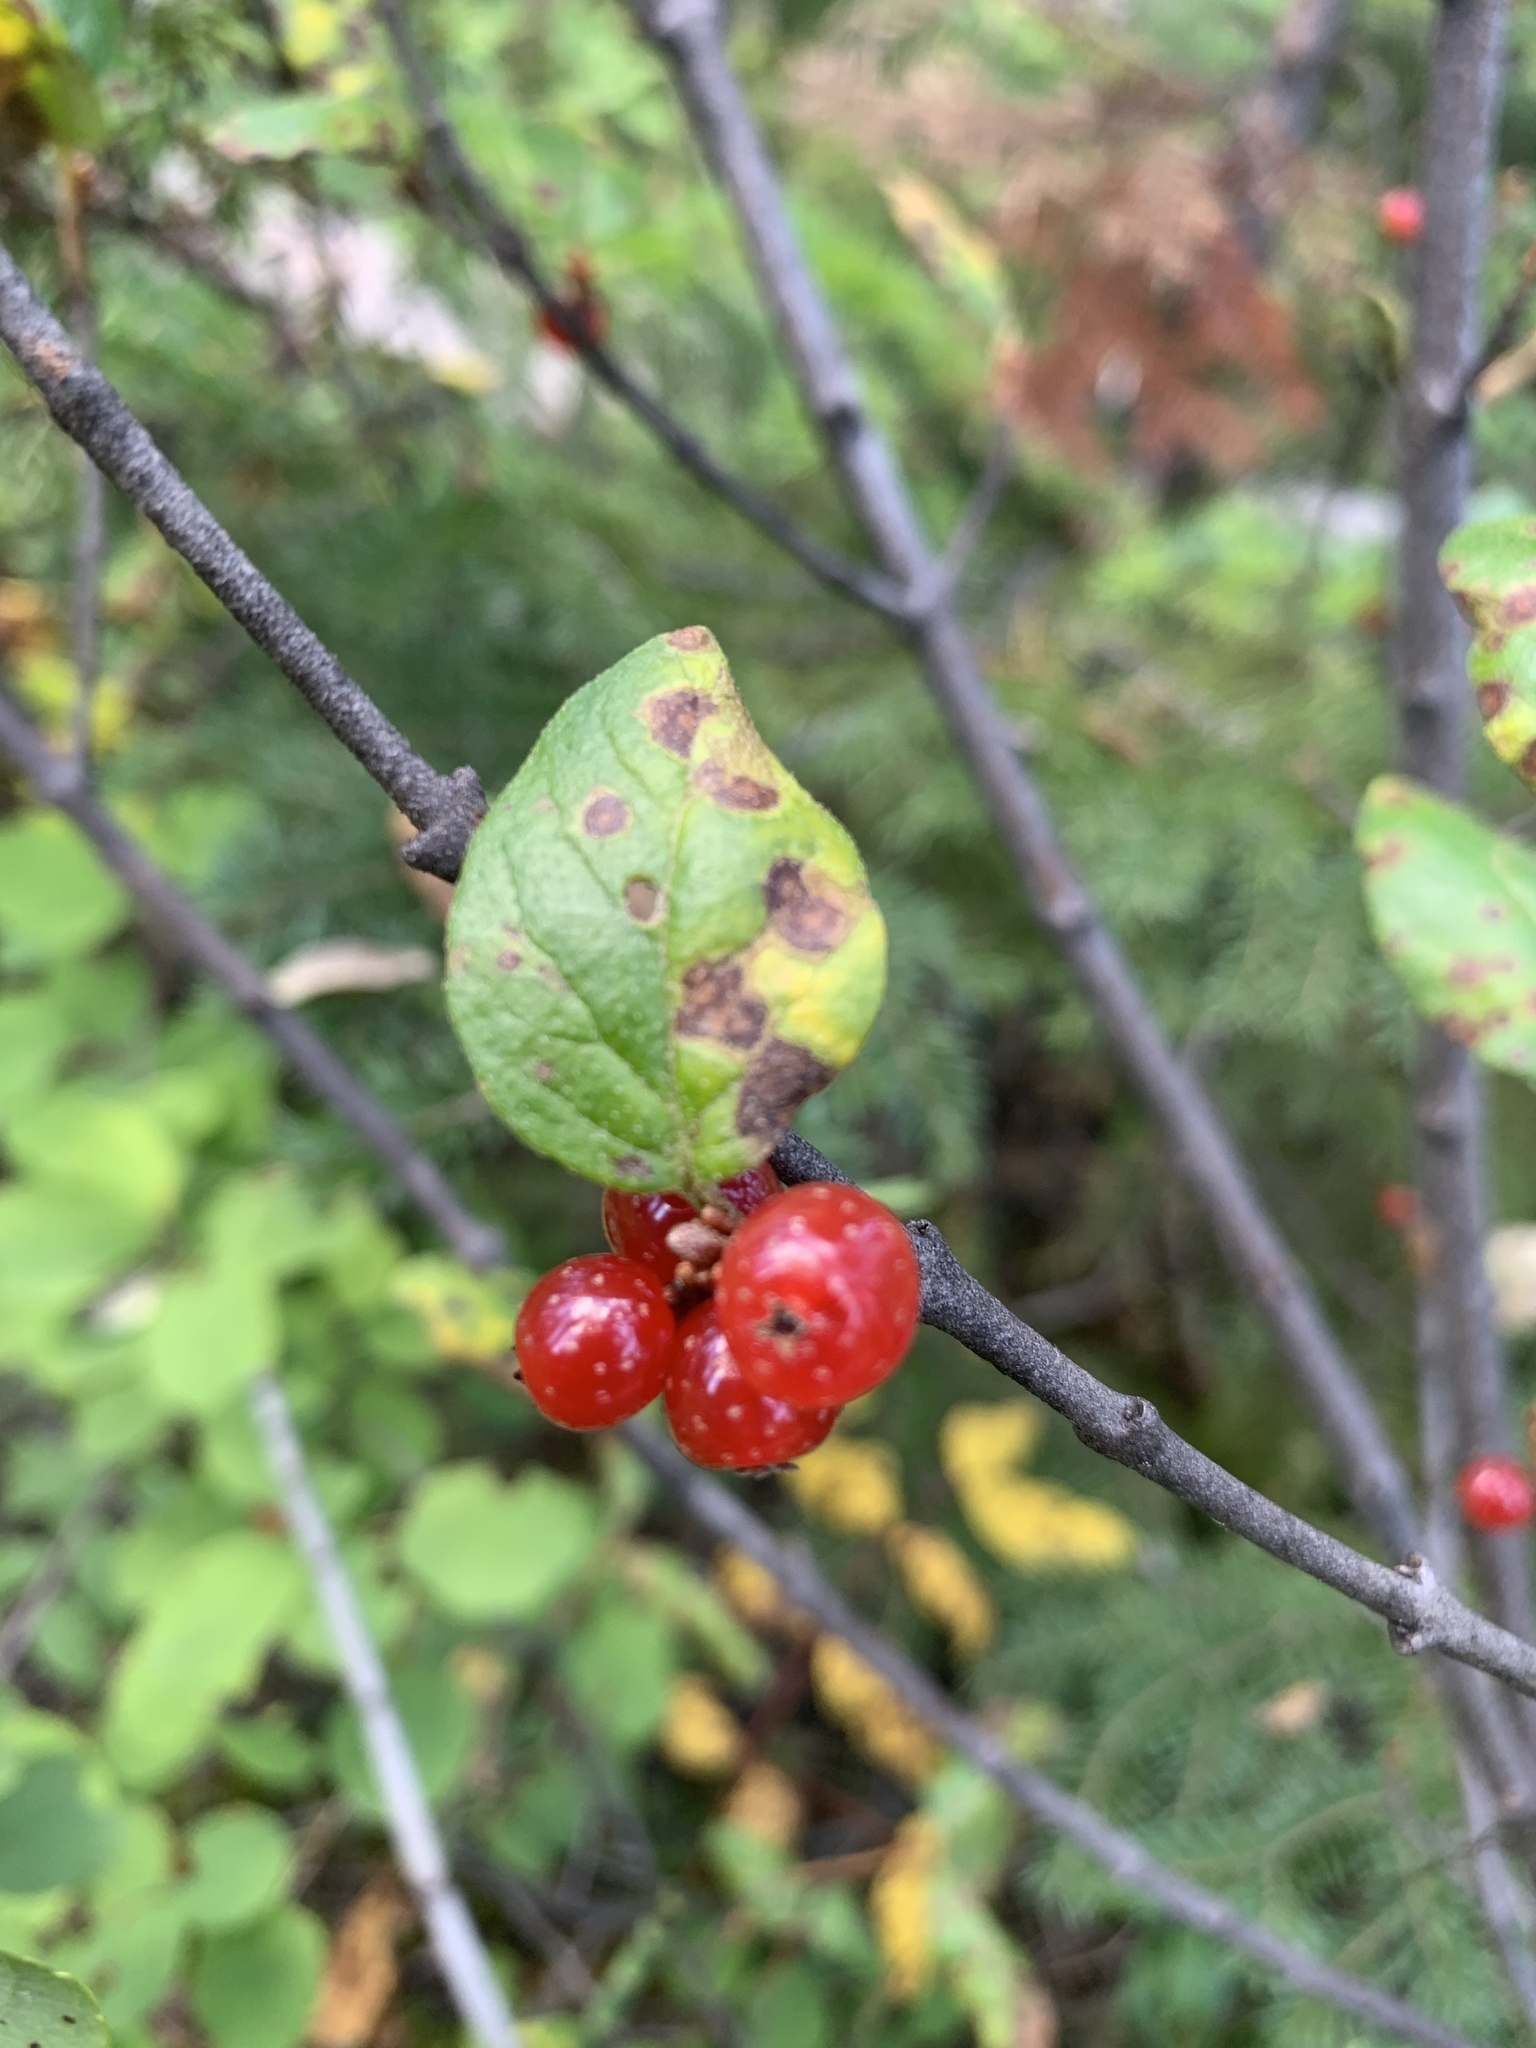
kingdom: Plantae
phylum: Tracheophyta
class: Magnoliopsida
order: Rosales
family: Elaeagnaceae
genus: Shepherdia
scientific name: Shepherdia canadensis
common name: Soapberry
